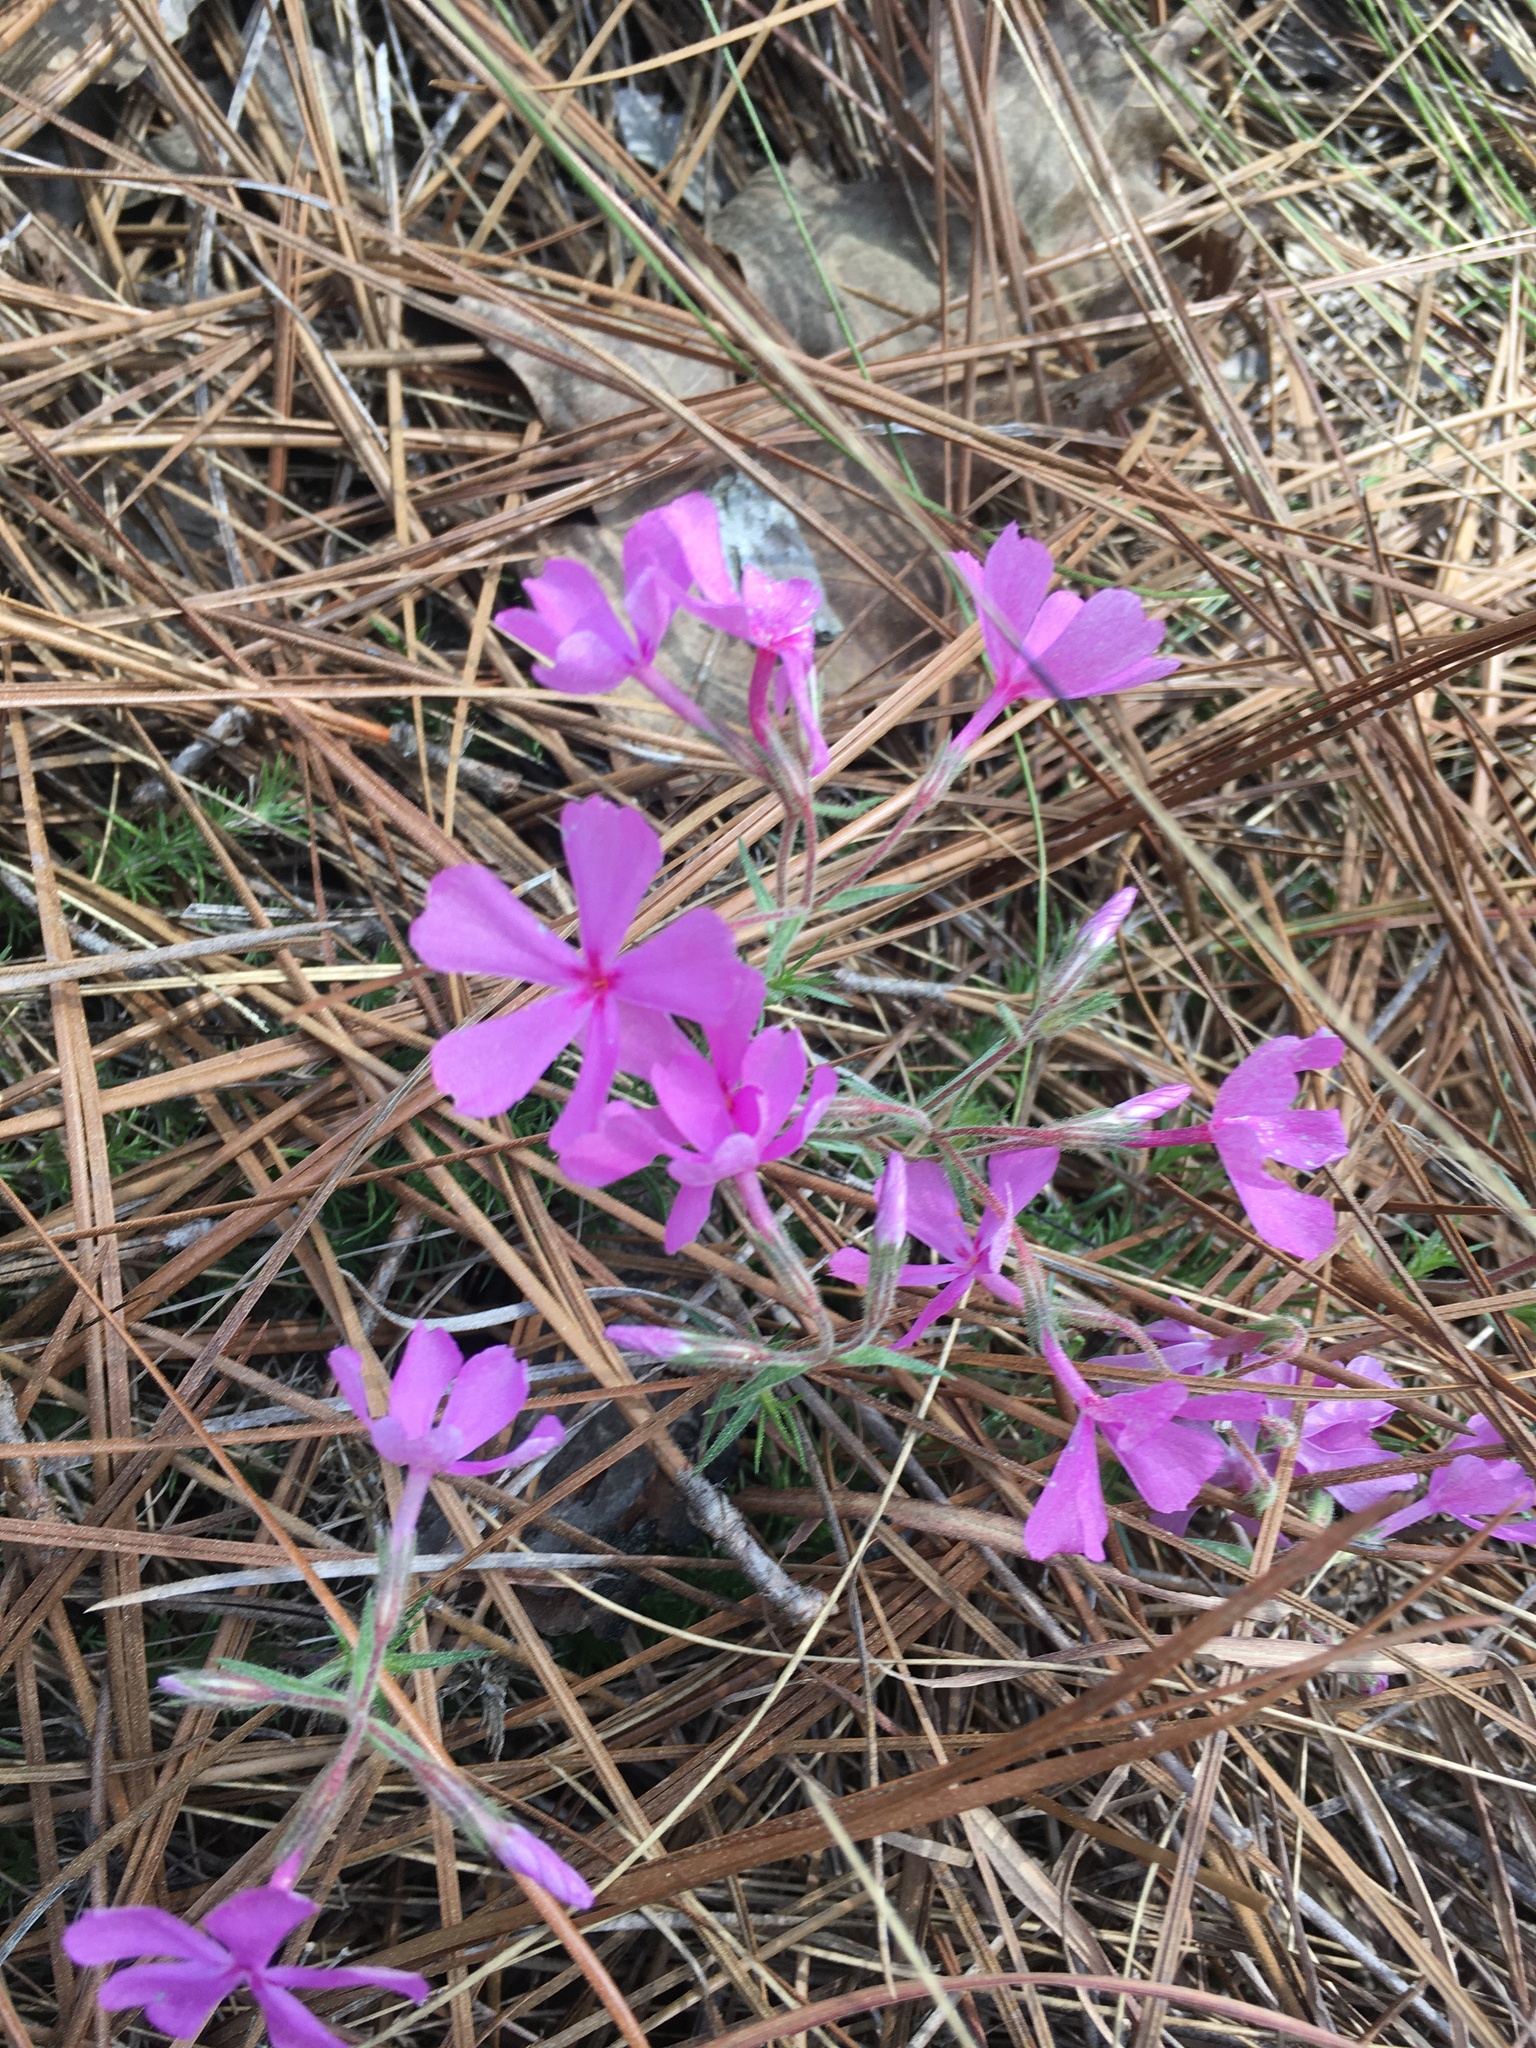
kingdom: Plantae
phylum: Tracheophyta
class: Magnoliopsida
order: Ericales
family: Polemoniaceae
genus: Phlox
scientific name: Phlox nivalis
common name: Trailing phlox
